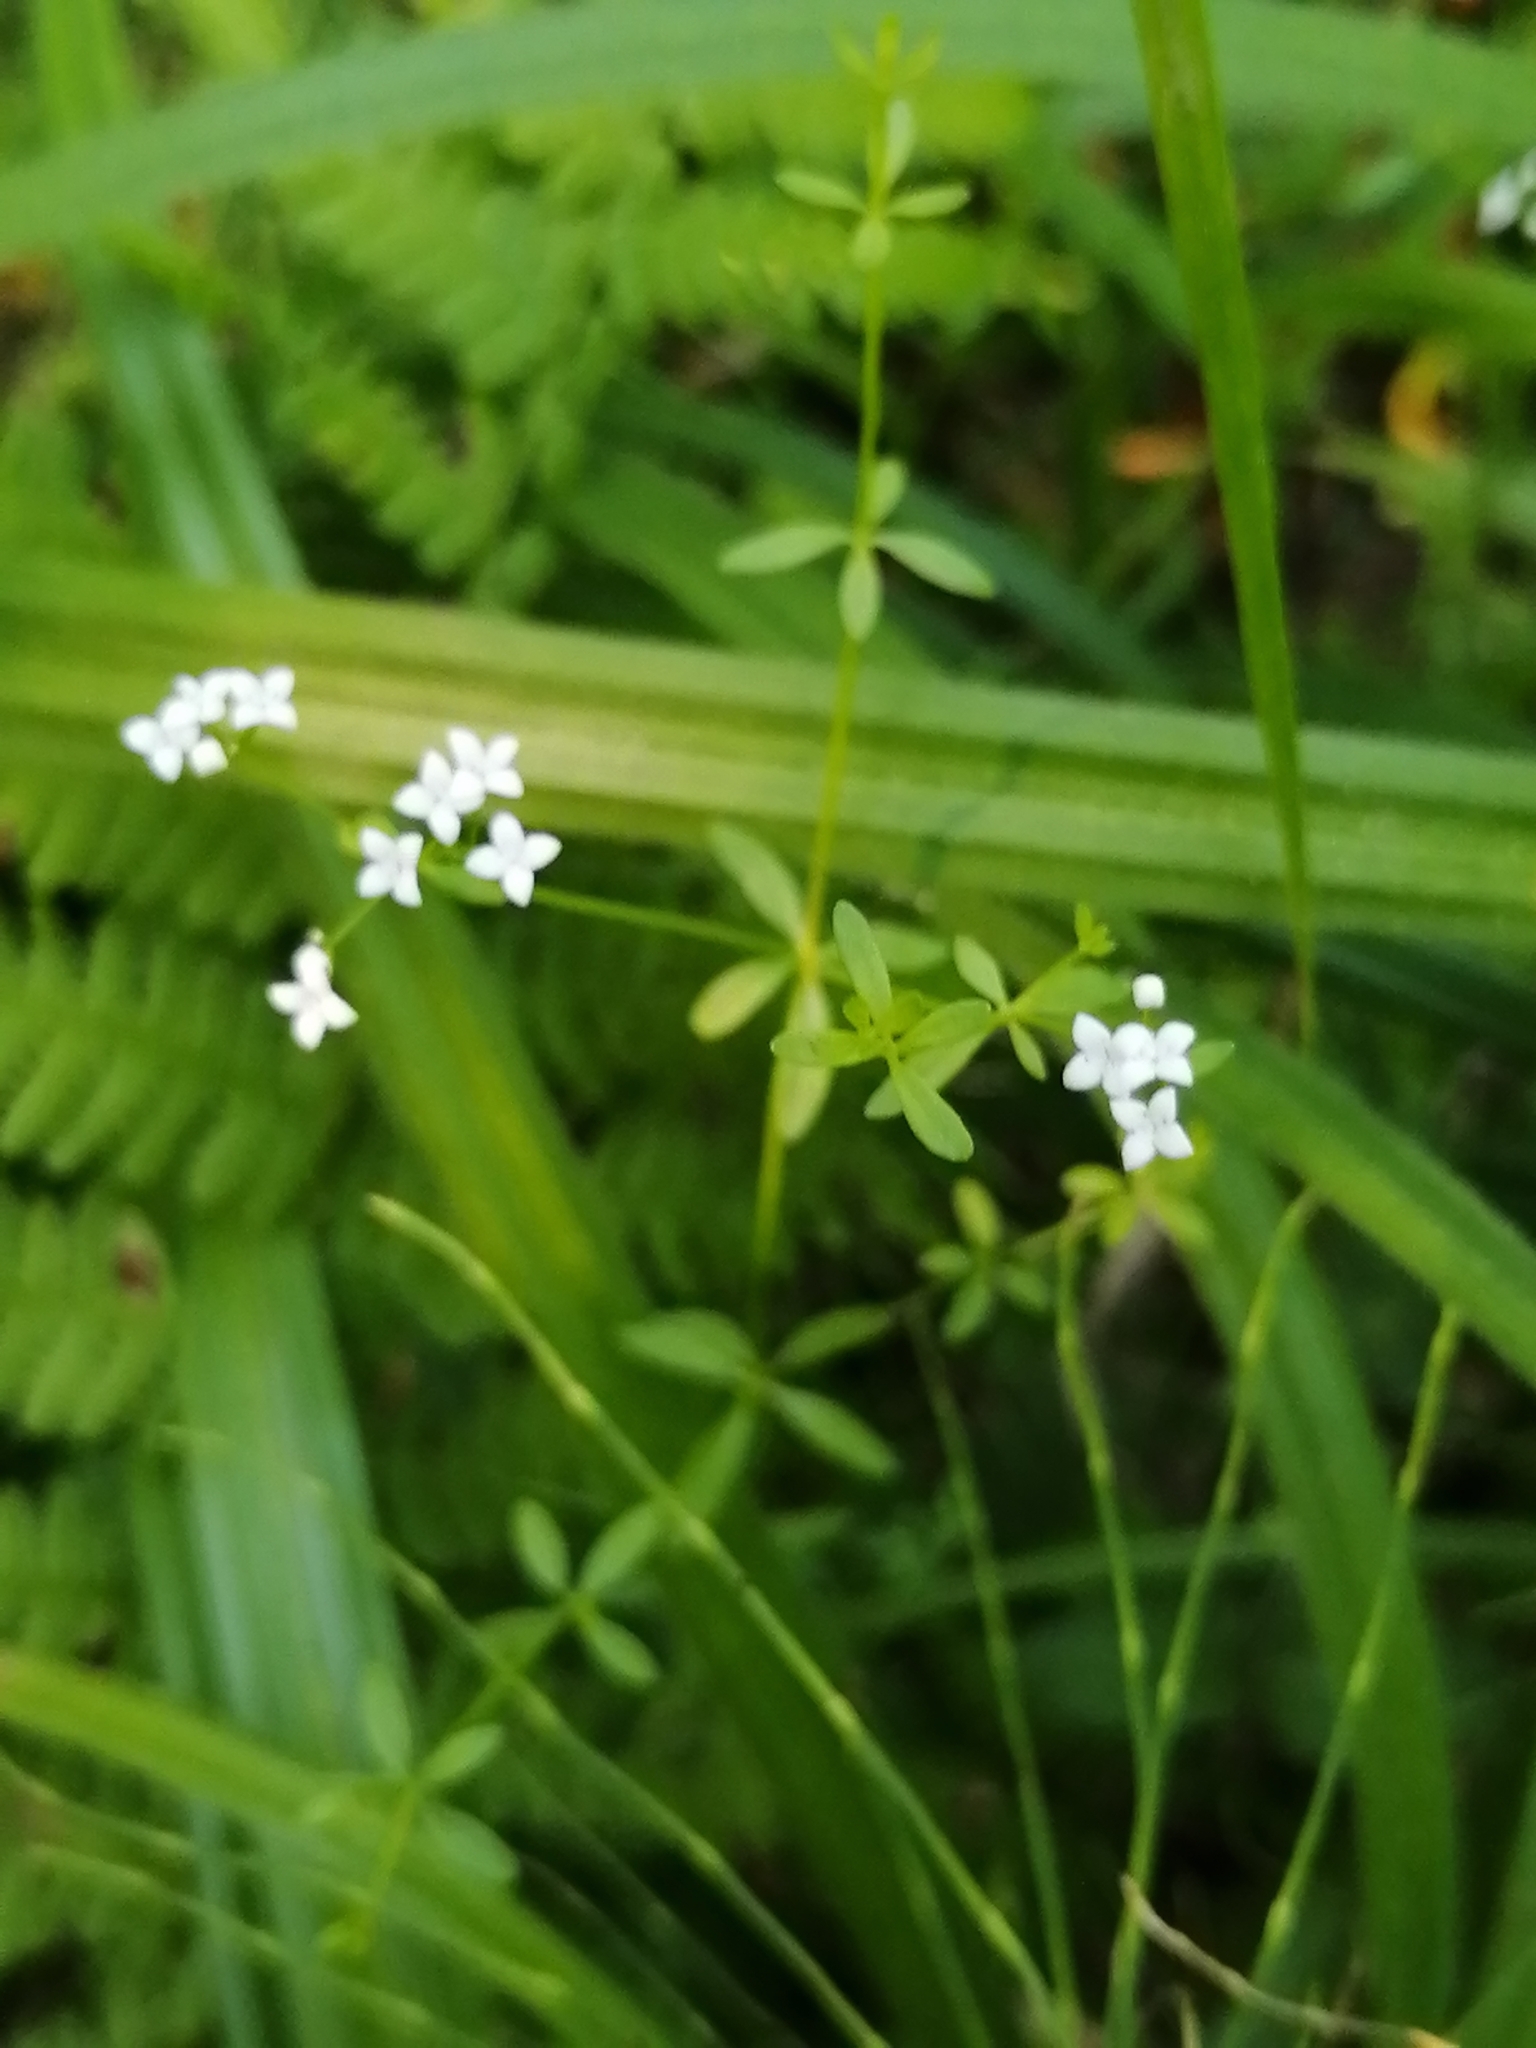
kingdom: Plantae
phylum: Tracheophyta
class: Magnoliopsida
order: Gentianales
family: Rubiaceae
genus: Galium
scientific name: Galium palustre
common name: Common marsh-bedstraw
